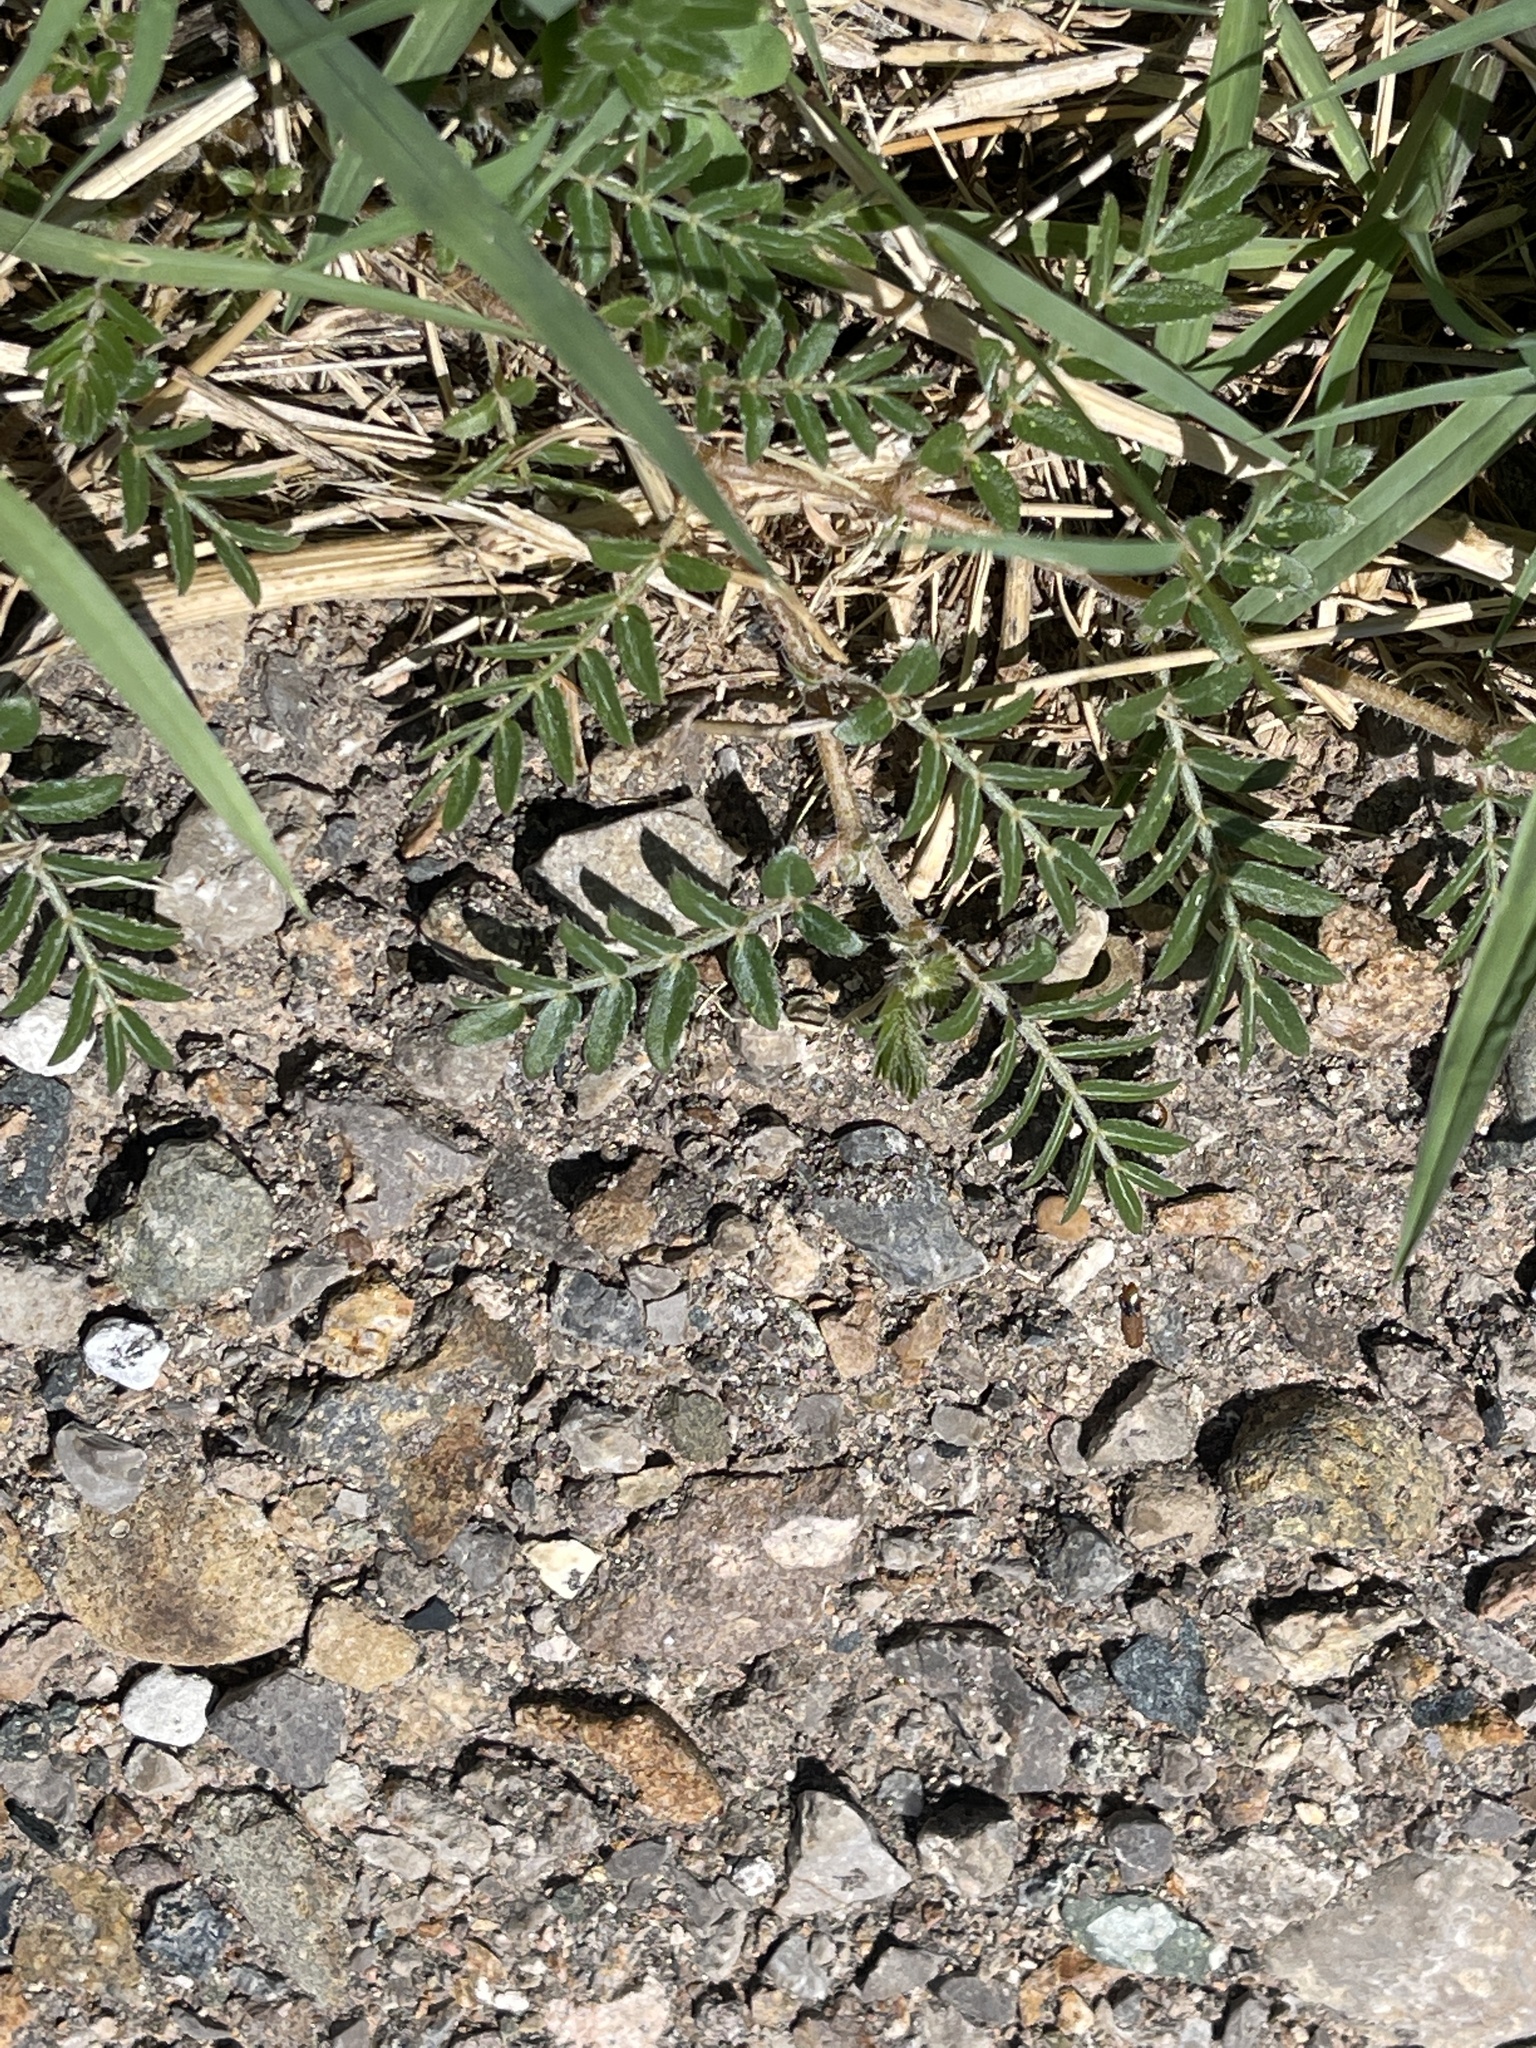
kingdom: Plantae
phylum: Tracheophyta
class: Magnoliopsida
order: Zygophyllales
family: Zygophyllaceae
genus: Tribulus
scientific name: Tribulus terrestris
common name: Puncturevine
